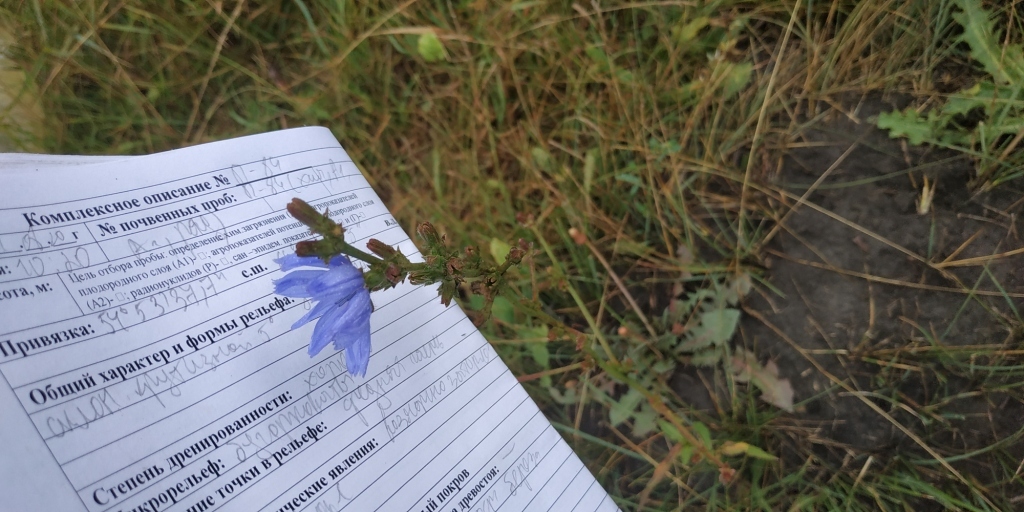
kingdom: Plantae
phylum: Tracheophyta
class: Magnoliopsida
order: Asterales
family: Asteraceae
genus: Cichorium
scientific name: Cichorium intybus
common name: Chicory
